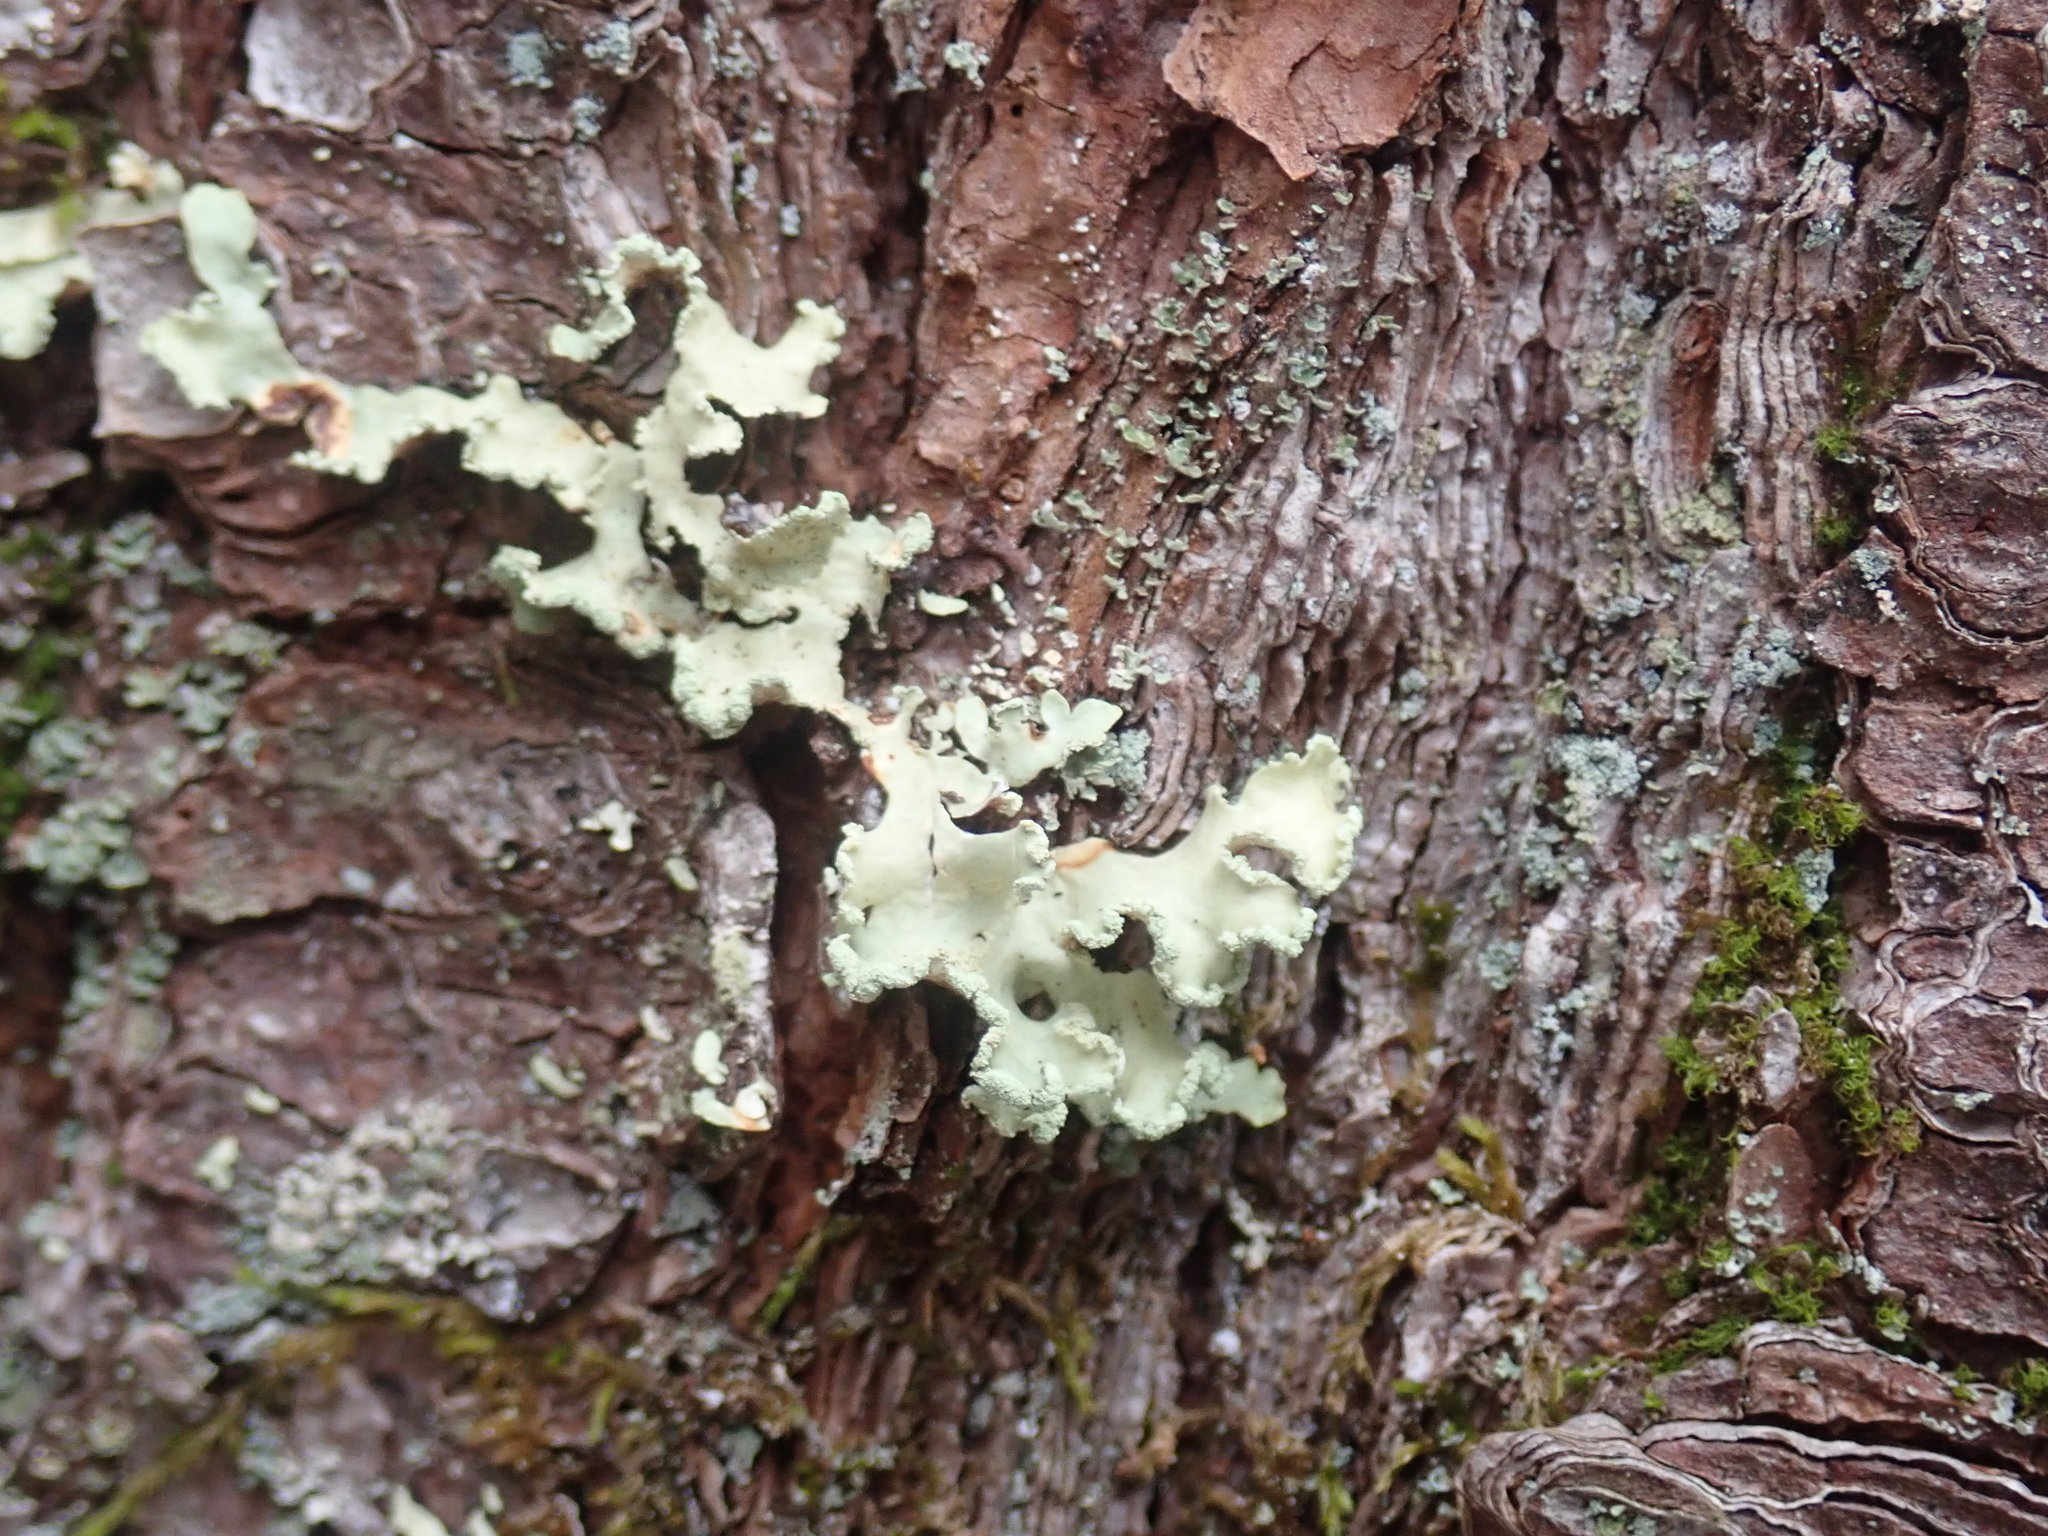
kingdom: Fungi
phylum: Ascomycota
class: Lecanoromycetes
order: Lecanorales
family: Parmeliaceae
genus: Usnocetraria
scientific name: Usnocetraria oakesiana
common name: Yellow ribbon lichen
